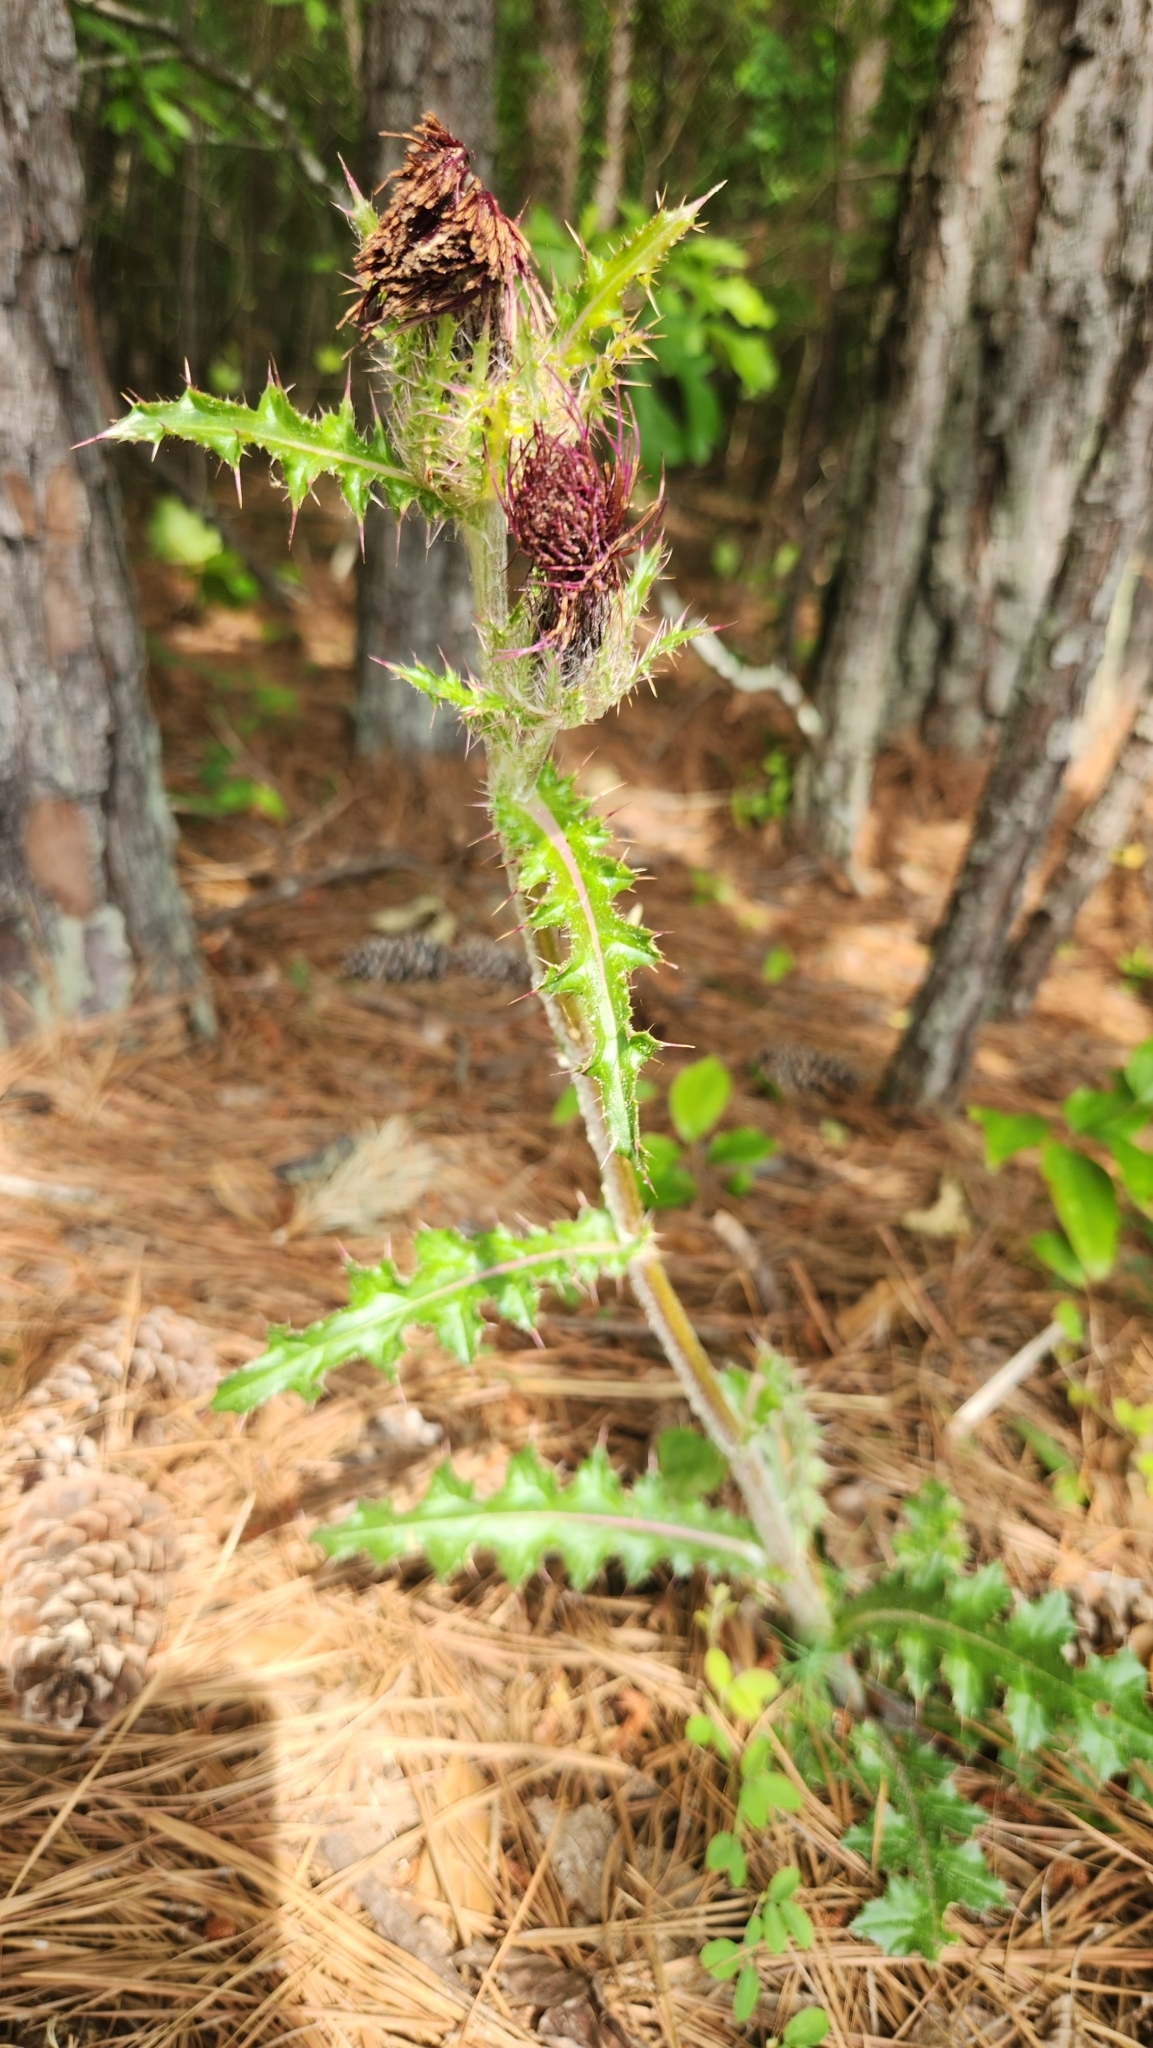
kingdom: Plantae
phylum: Tracheophyta
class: Magnoliopsida
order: Asterales
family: Asteraceae
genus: Cirsium
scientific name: Cirsium horridulum
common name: Bristly thistle
